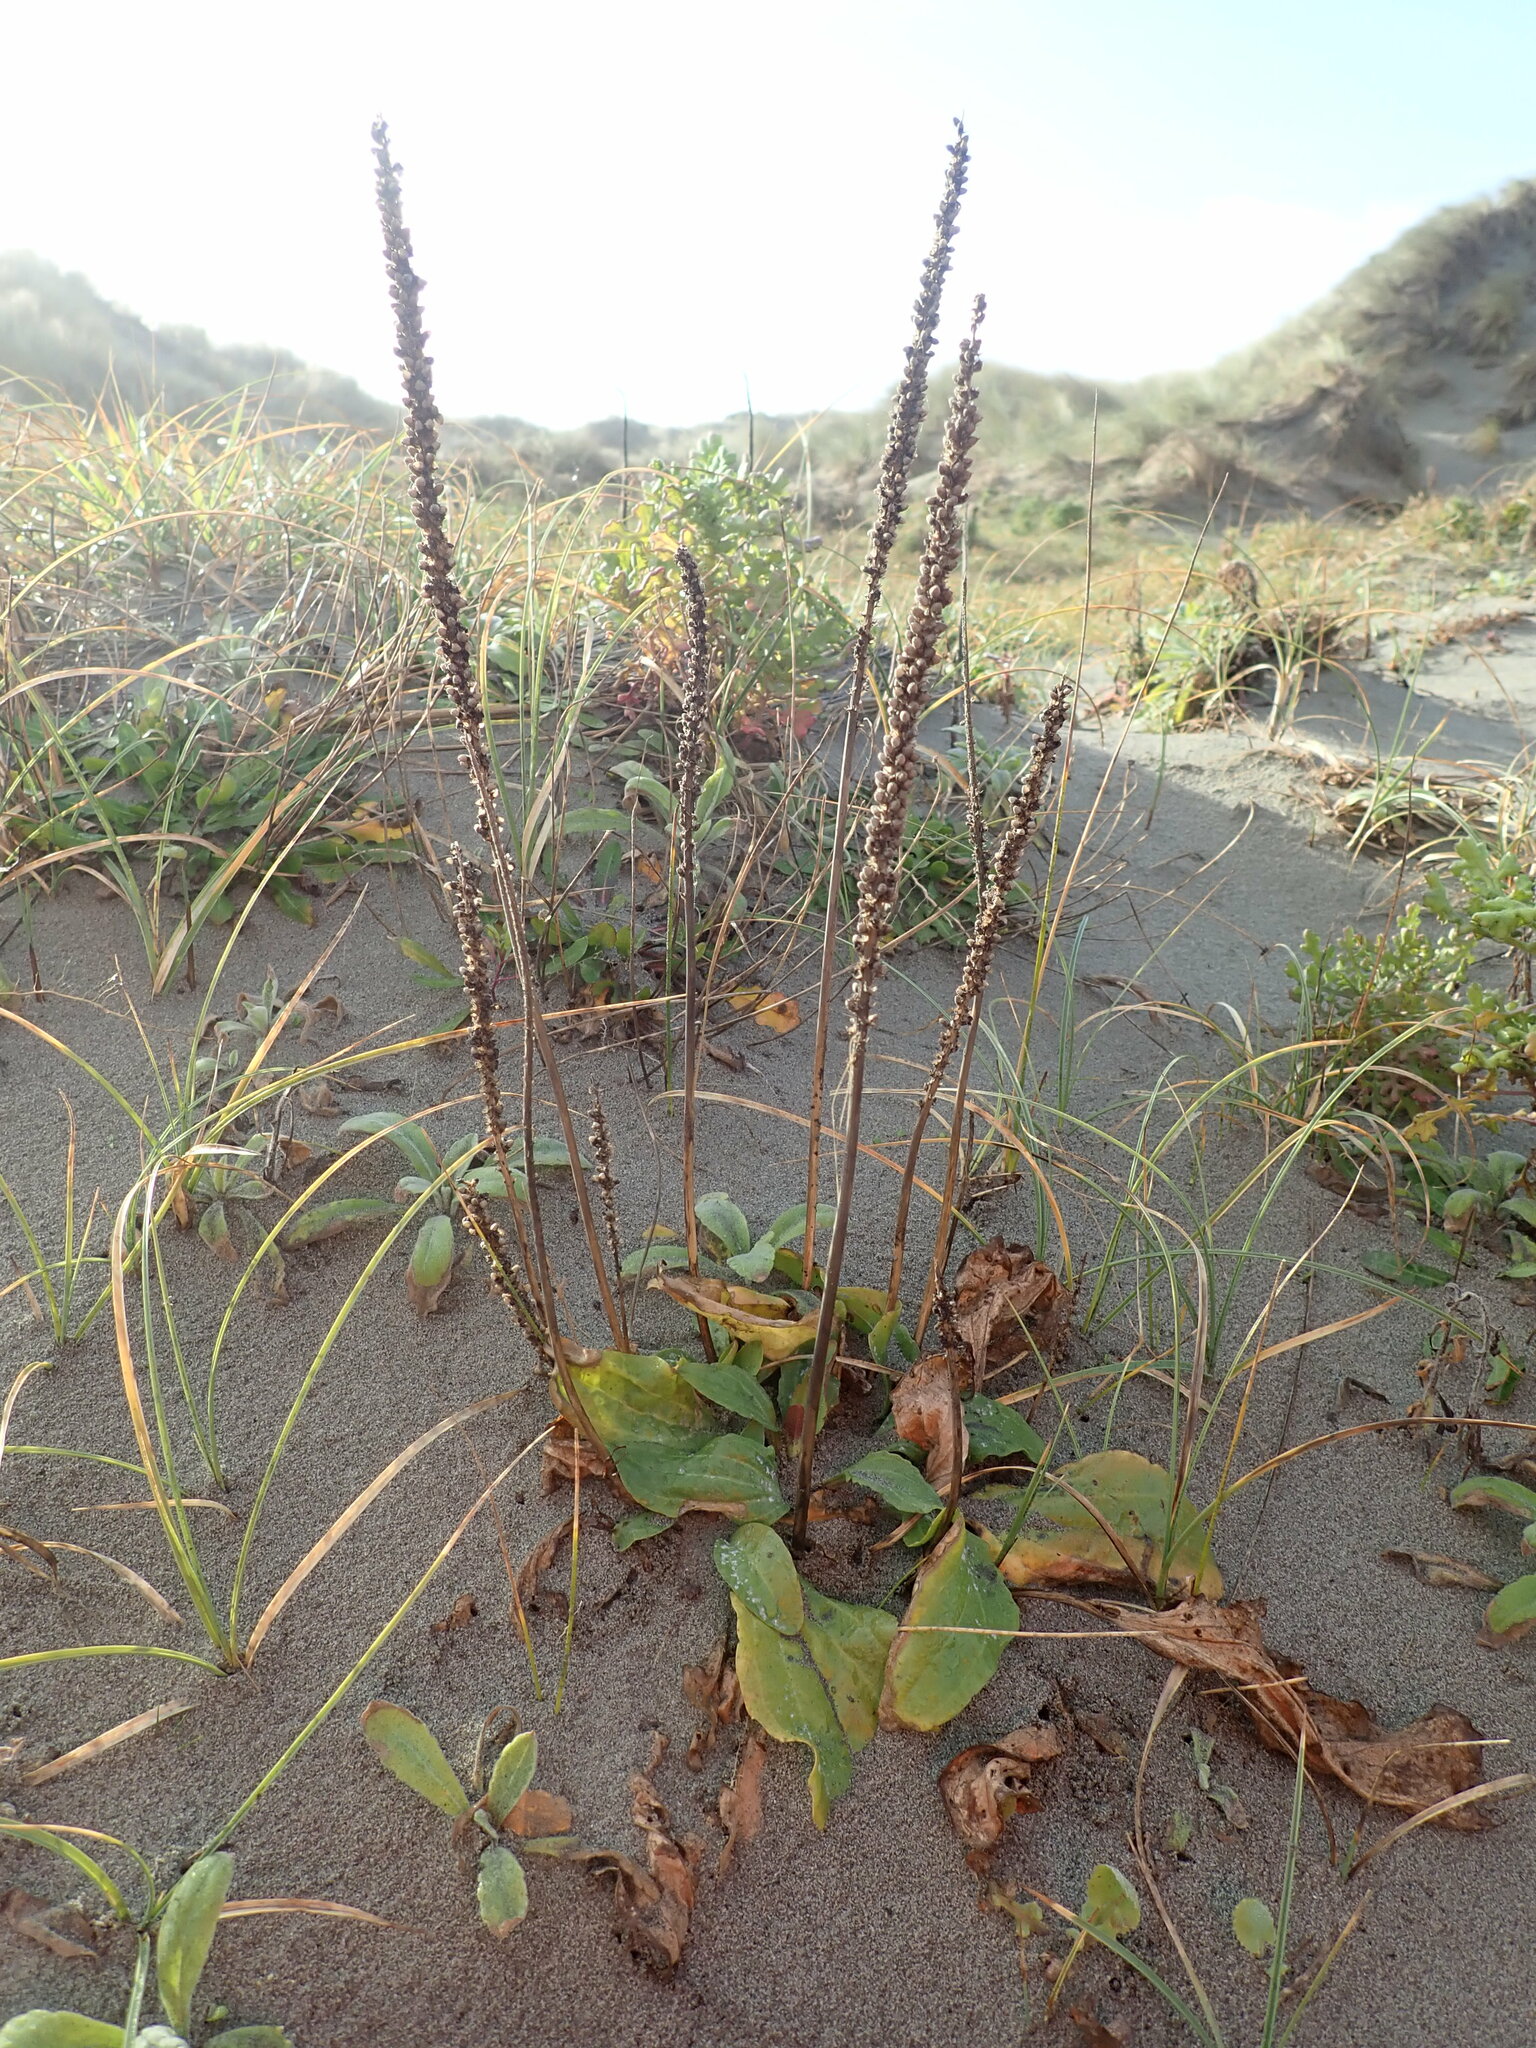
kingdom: Plantae
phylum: Tracheophyta
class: Magnoliopsida
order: Lamiales
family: Plantaginaceae
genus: Plantago
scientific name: Plantago major
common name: Common plantain
